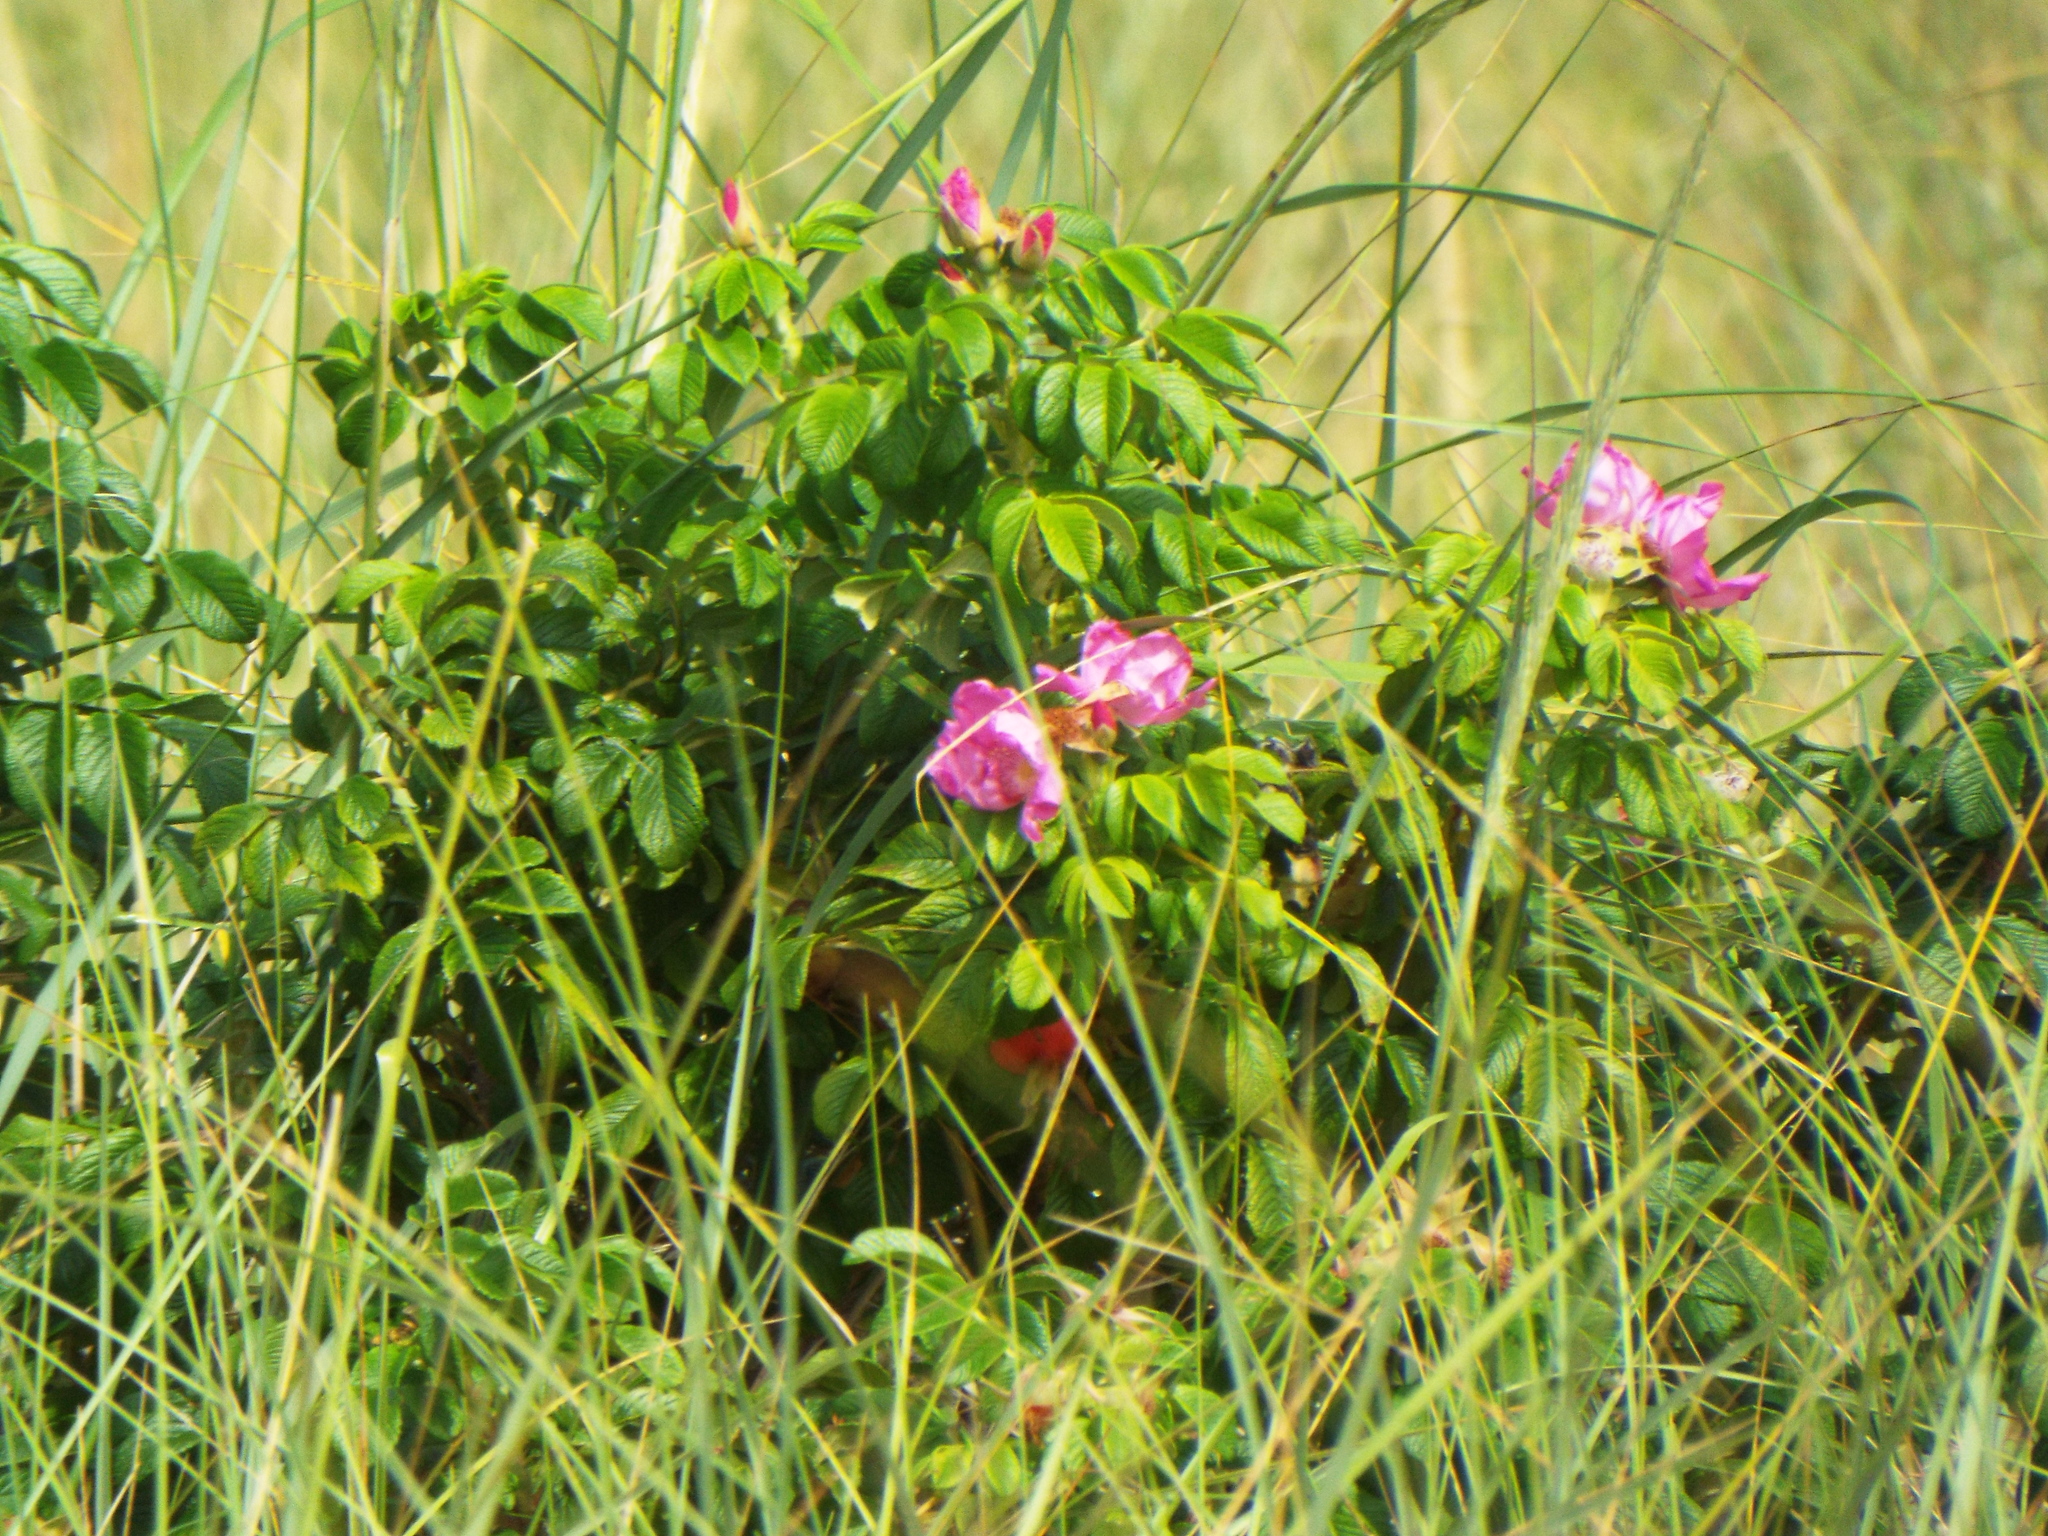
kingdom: Plantae
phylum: Tracheophyta
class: Magnoliopsida
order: Rosales
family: Rosaceae
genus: Rosa
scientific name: Rosa rugosa
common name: Japanese rose
